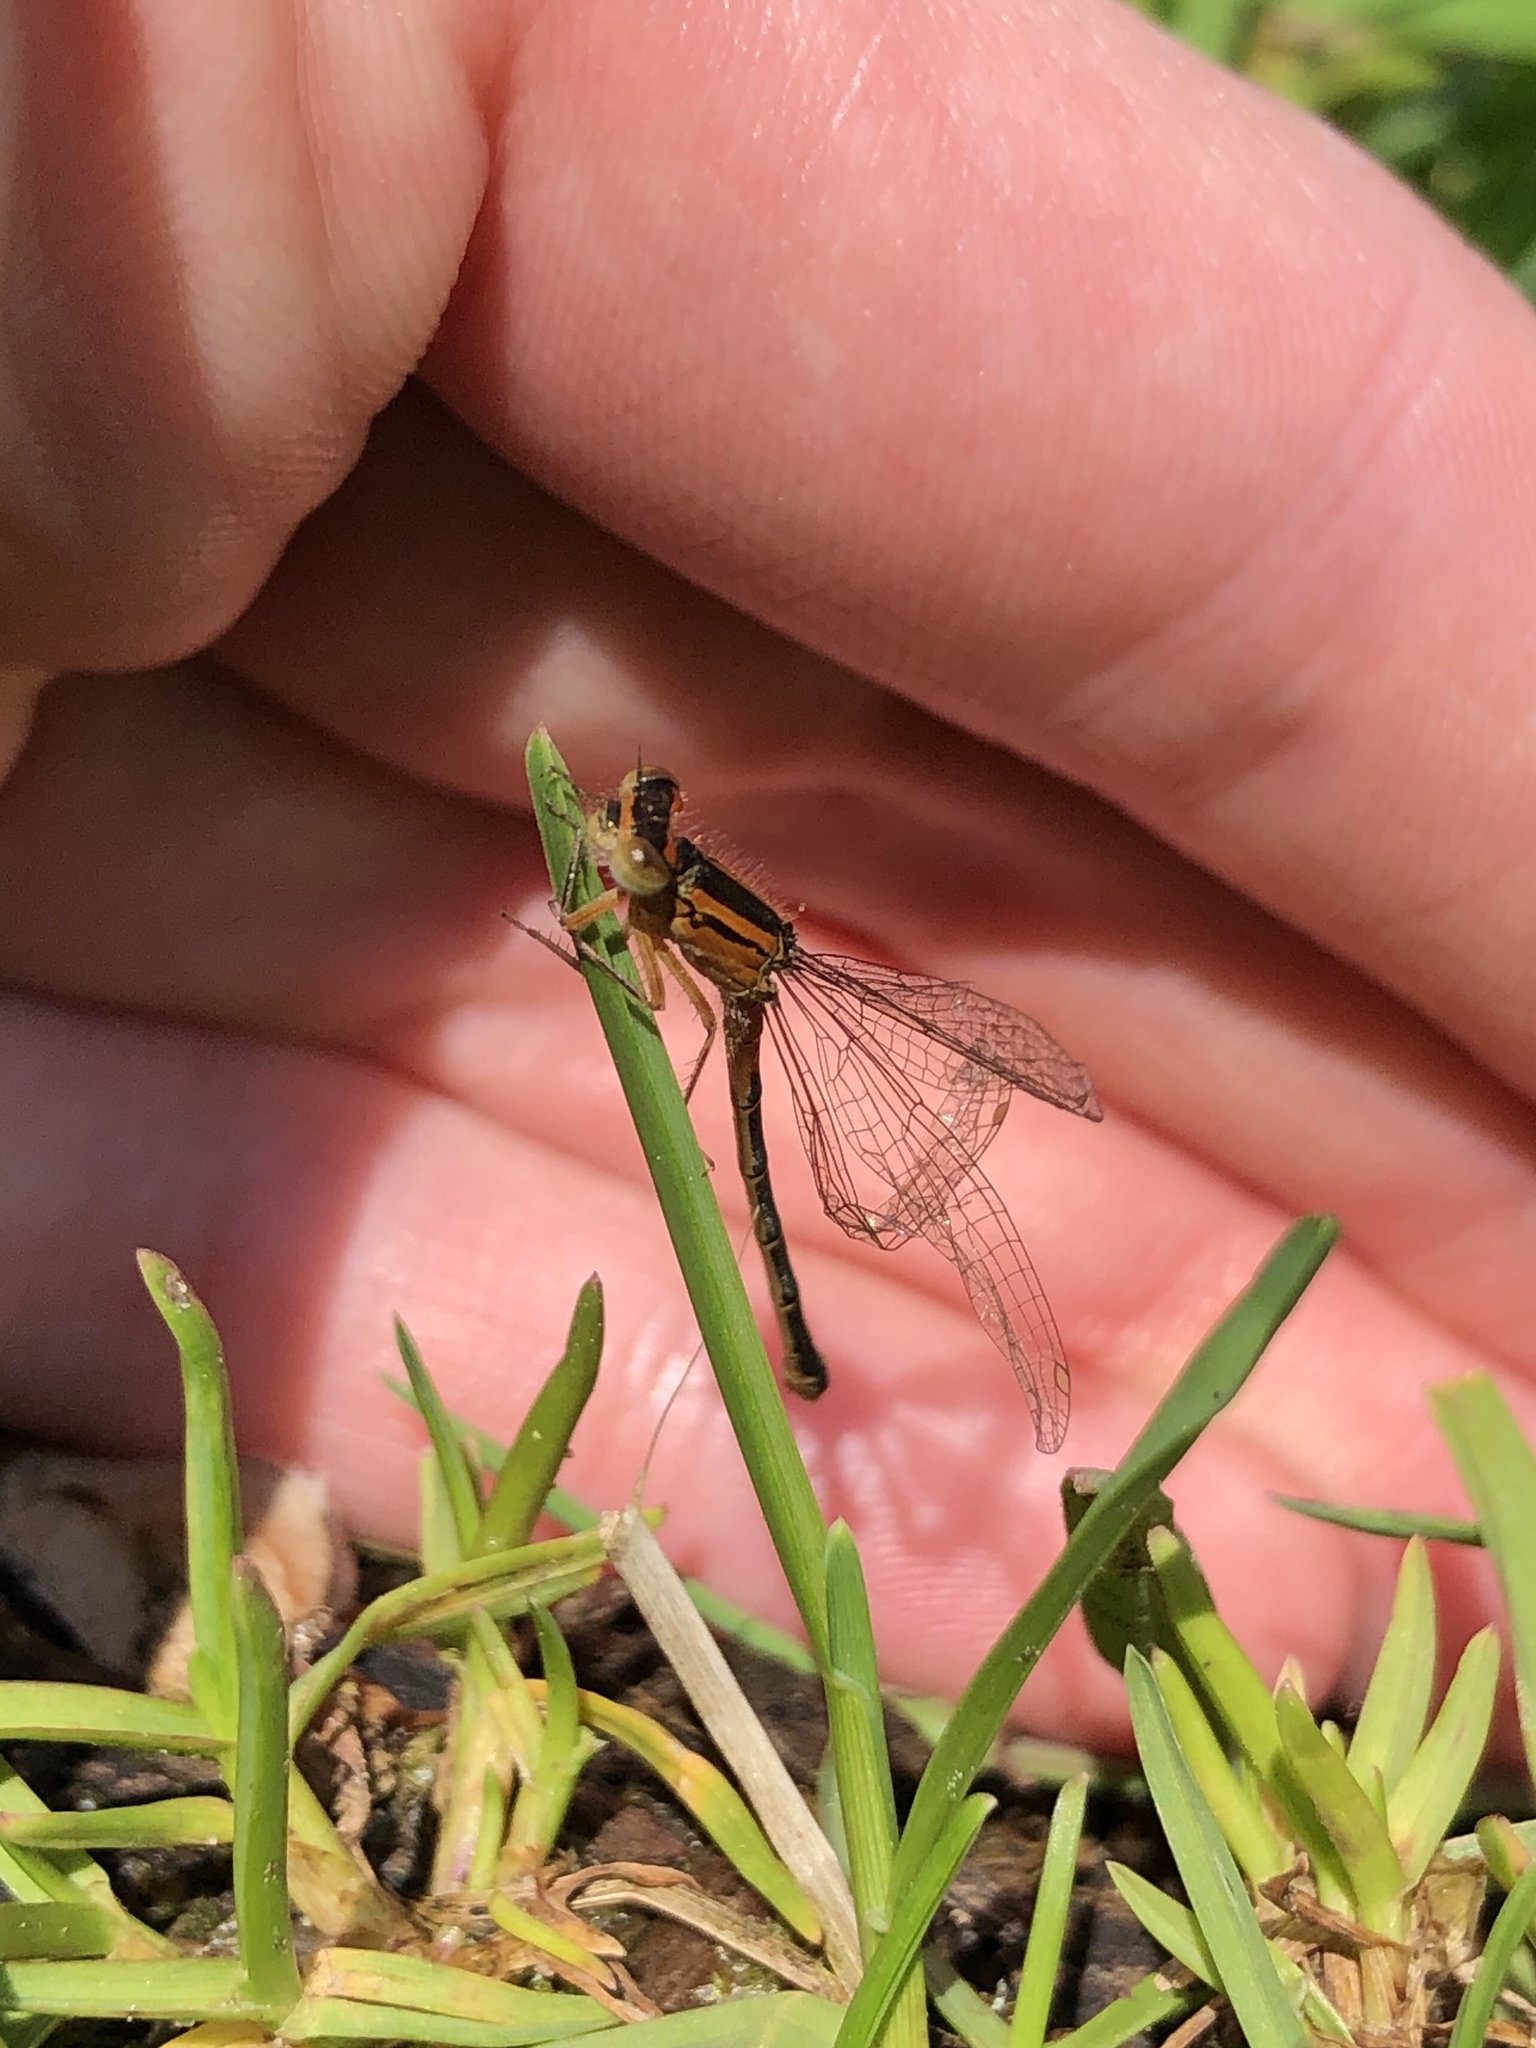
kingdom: Animalia
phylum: Arthropoda
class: Insecta
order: Odonata
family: Coenagrionidae
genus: Ischnura
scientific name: Ischnura verticalis
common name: Eastern forktail
